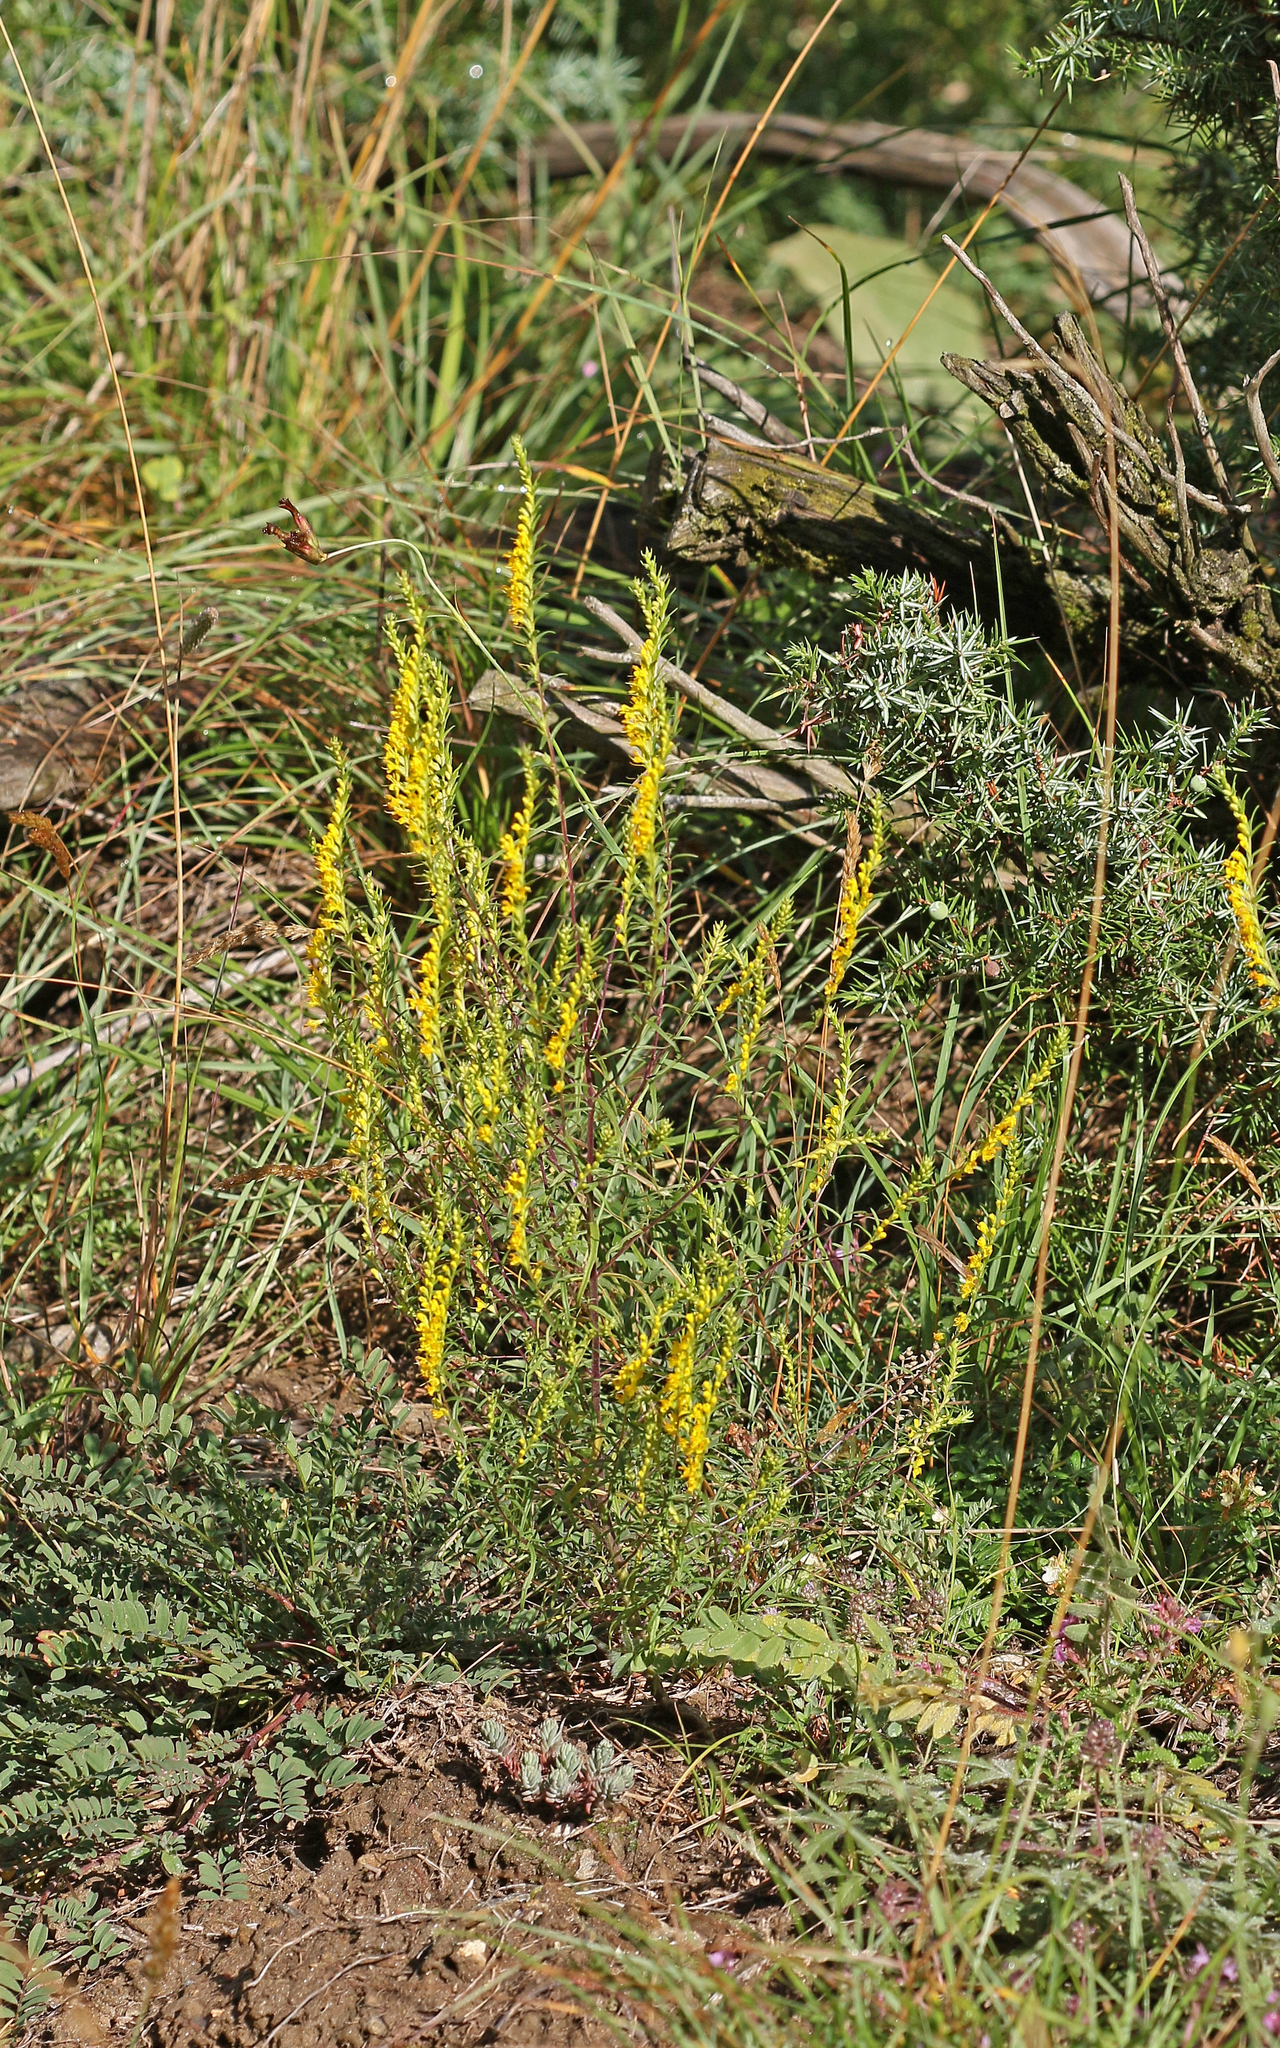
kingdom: Plantae
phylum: Tracheophyta
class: Magnoliopsida
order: Lamiales
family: Orobanchaceae
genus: Odontites
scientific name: Odontites luteus
